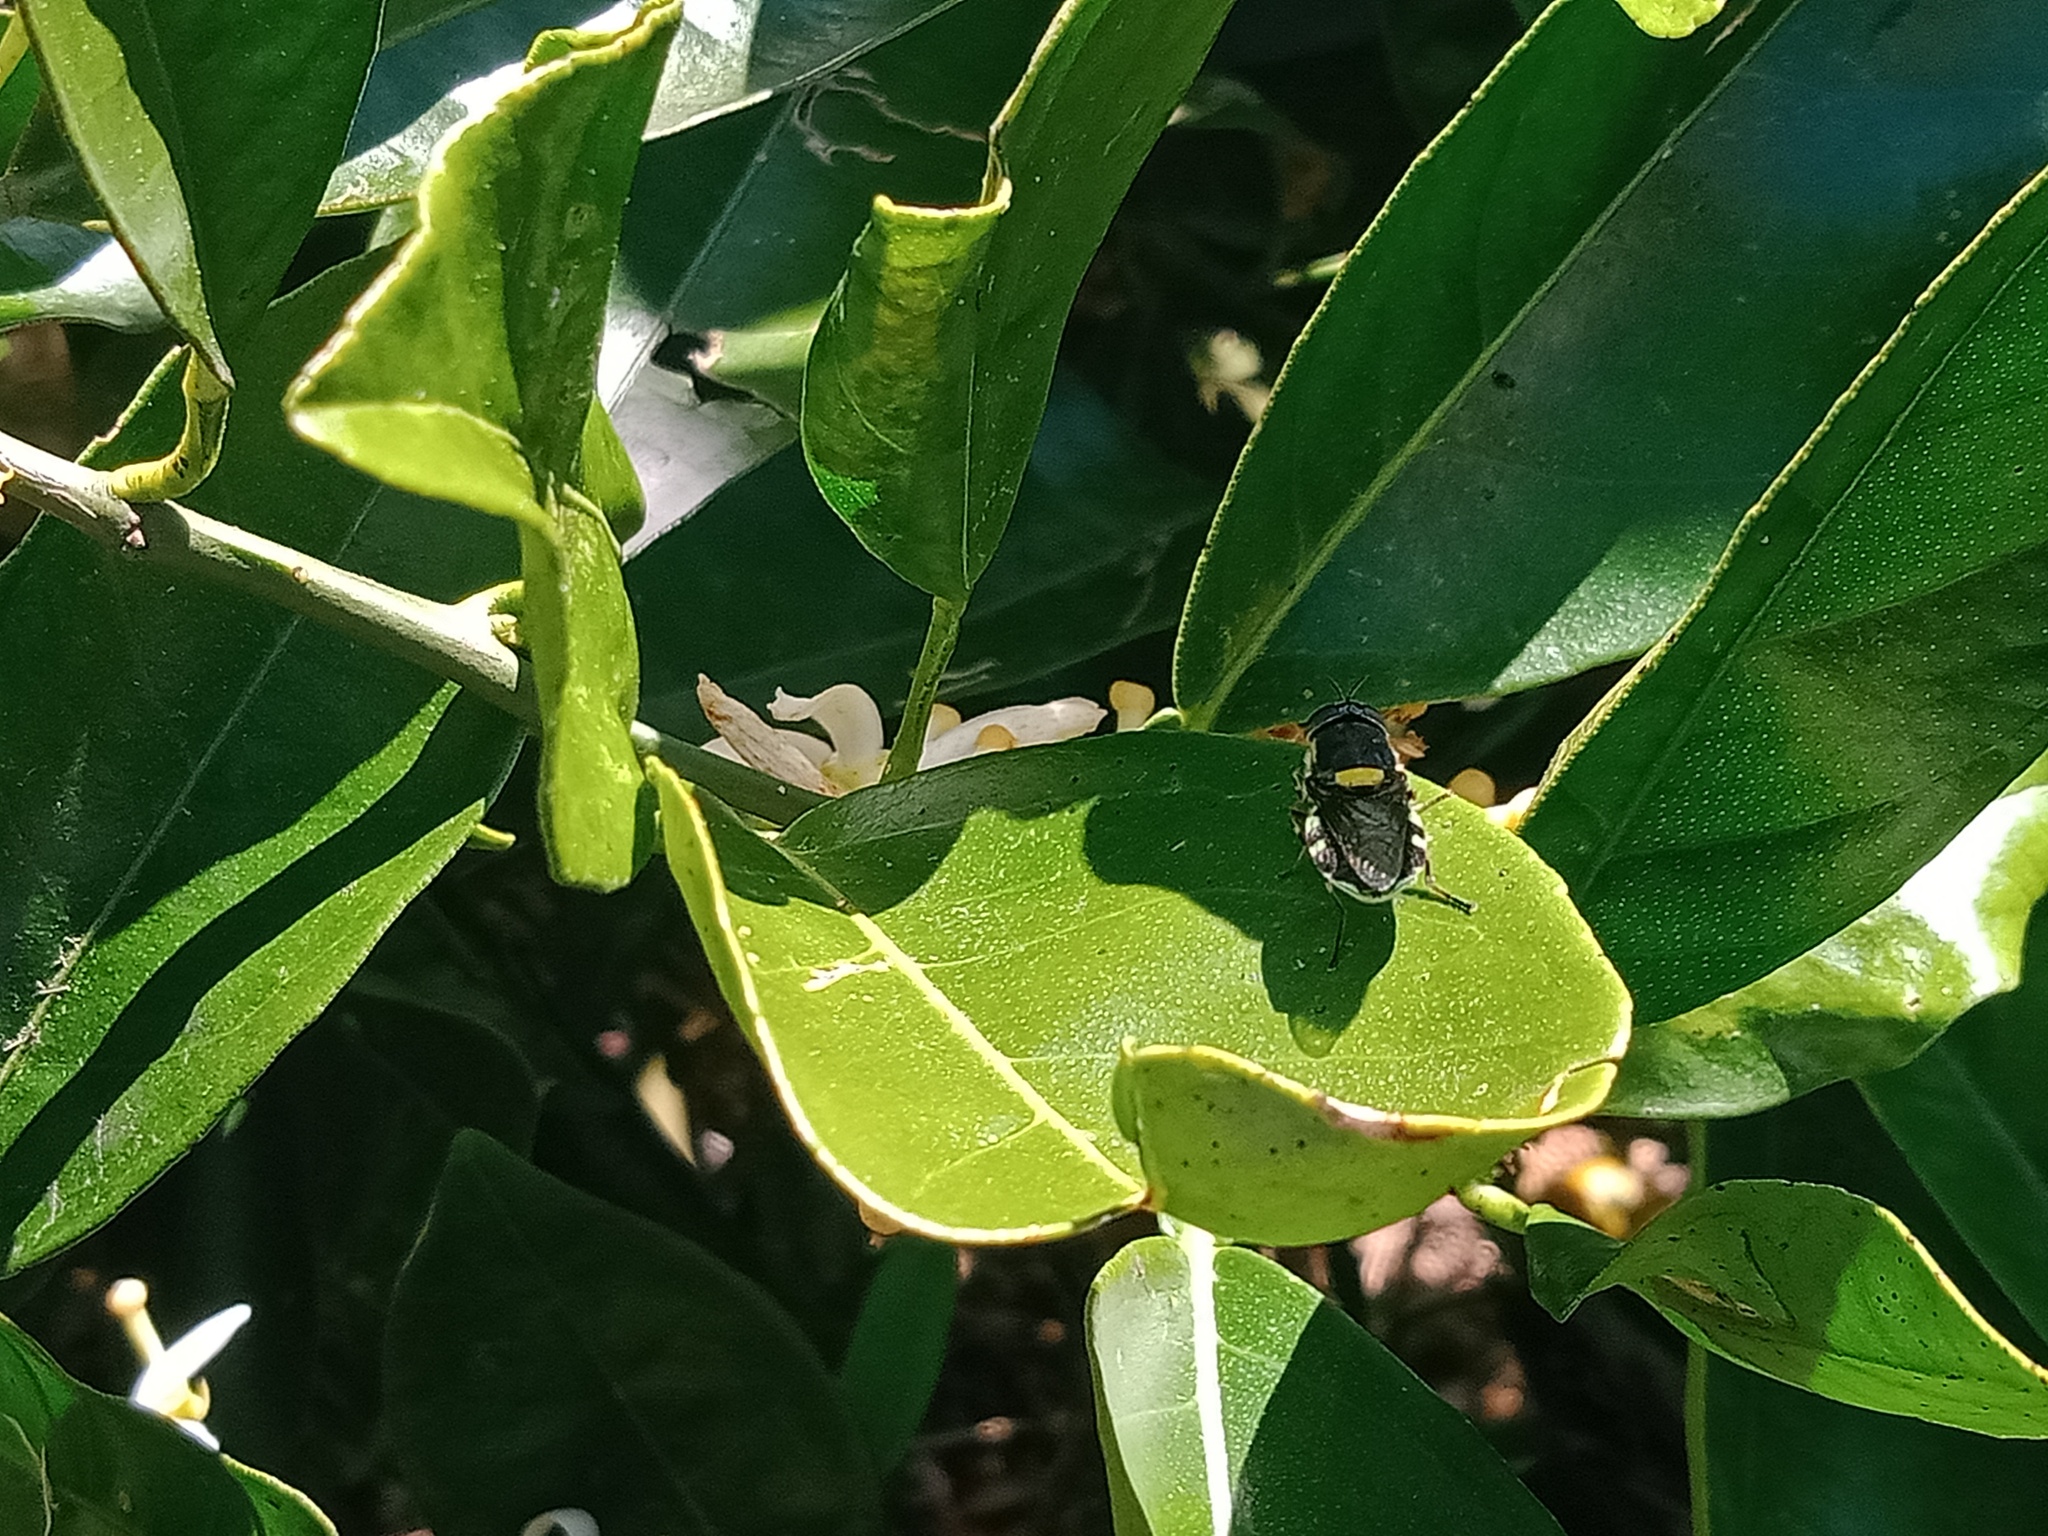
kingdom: Animalia
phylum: Arthropoda
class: Insecta
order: Diptera
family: Stratiomyidae
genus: Odontomyia
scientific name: Odontomyia hunteri
